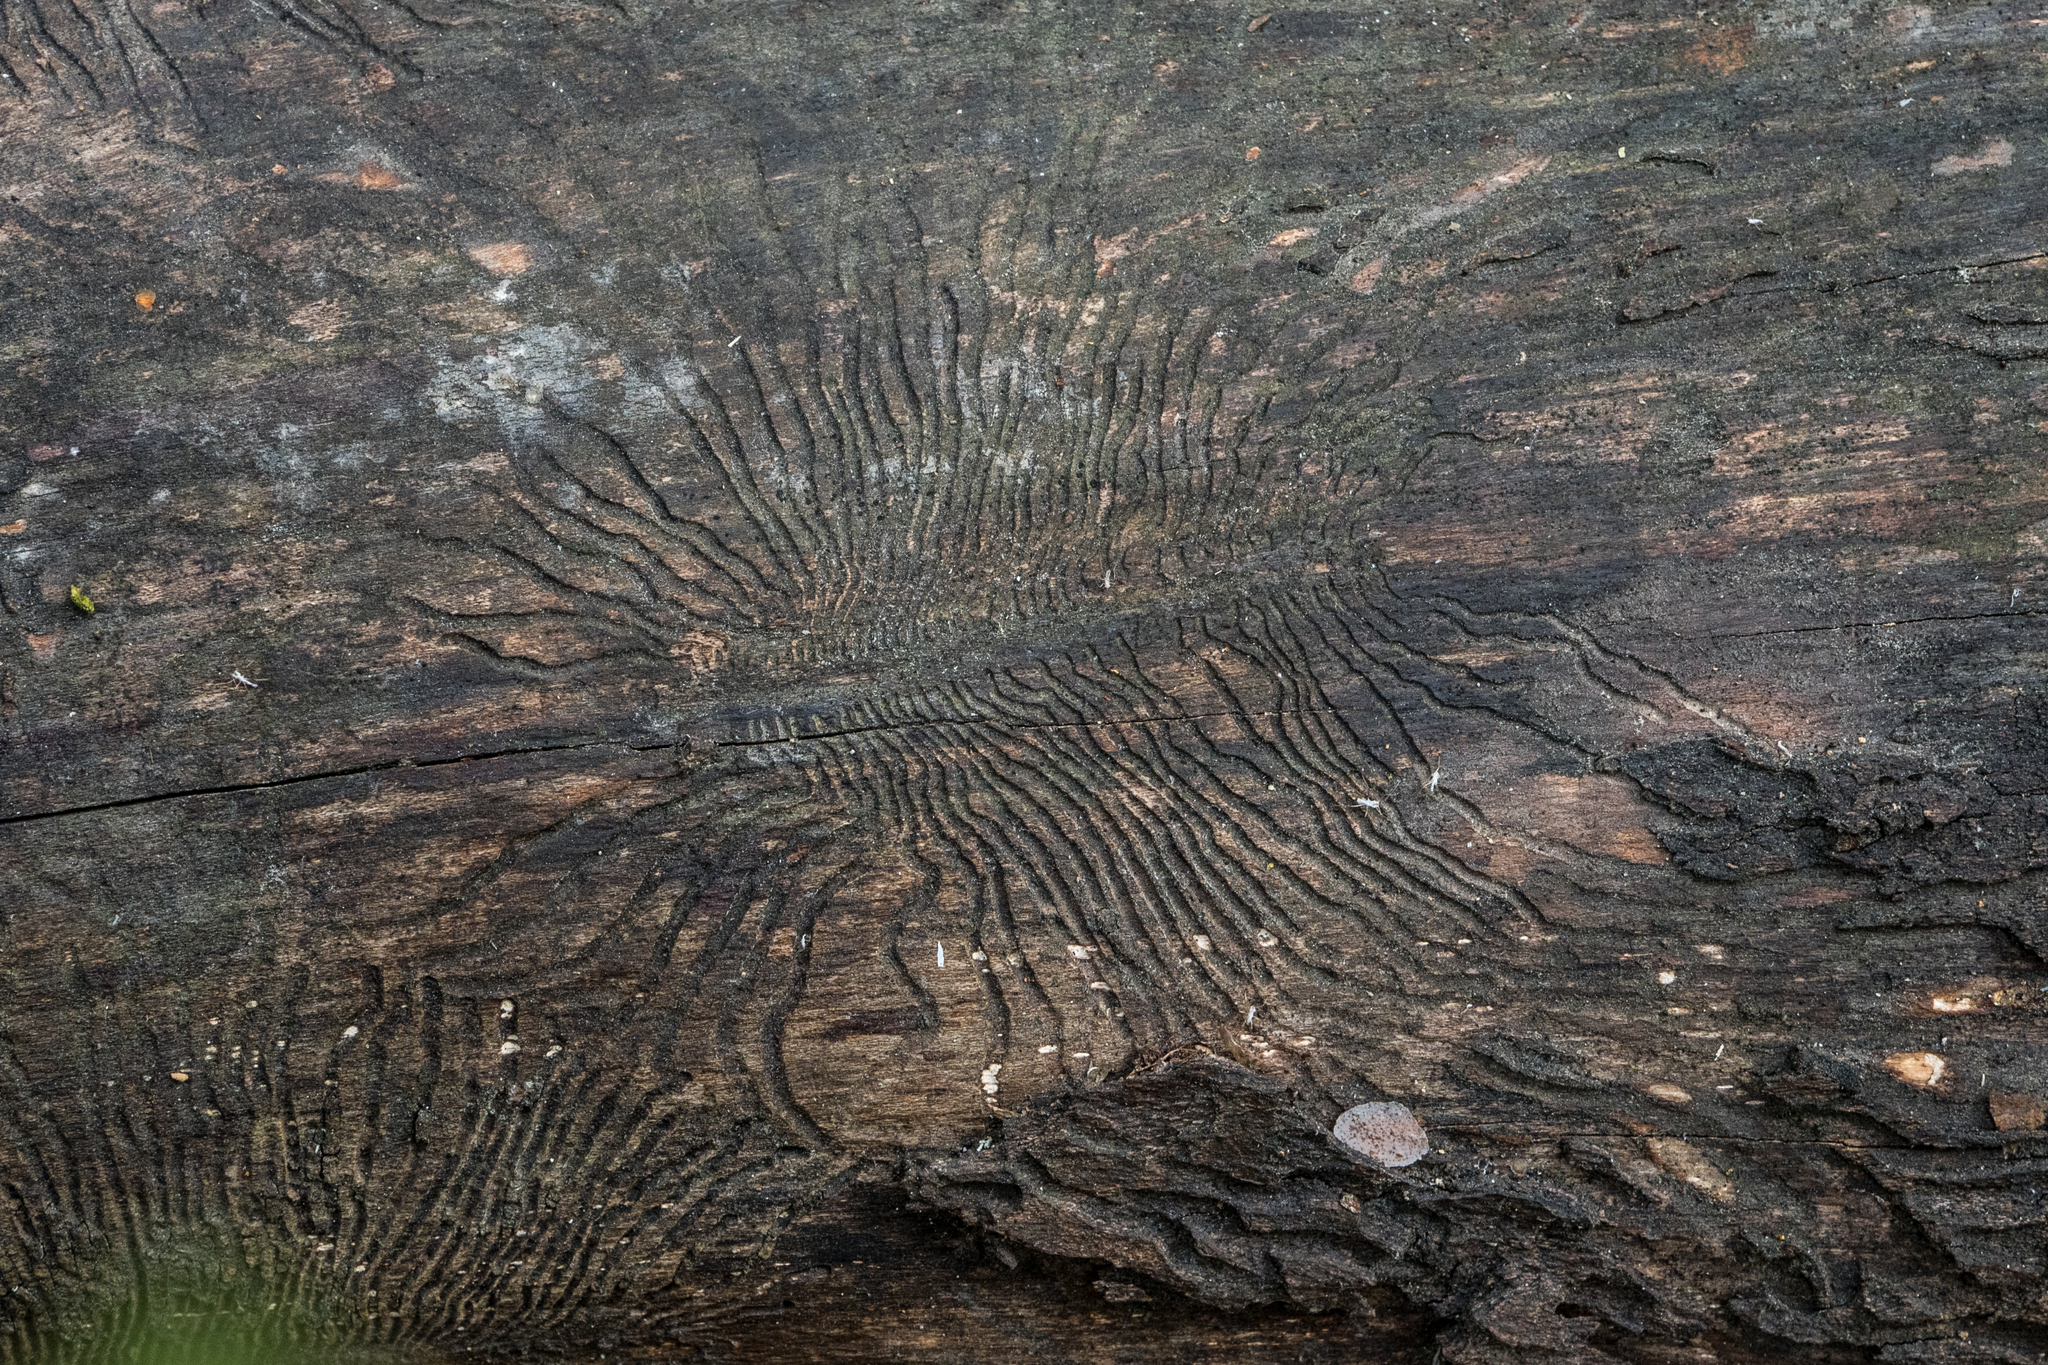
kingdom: Animalia
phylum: Arthropoda
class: Insecta
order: Coleoptera
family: Curculionidae
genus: Scolytus
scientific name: Scolytus ratzeburgii
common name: Birch bark beetle
